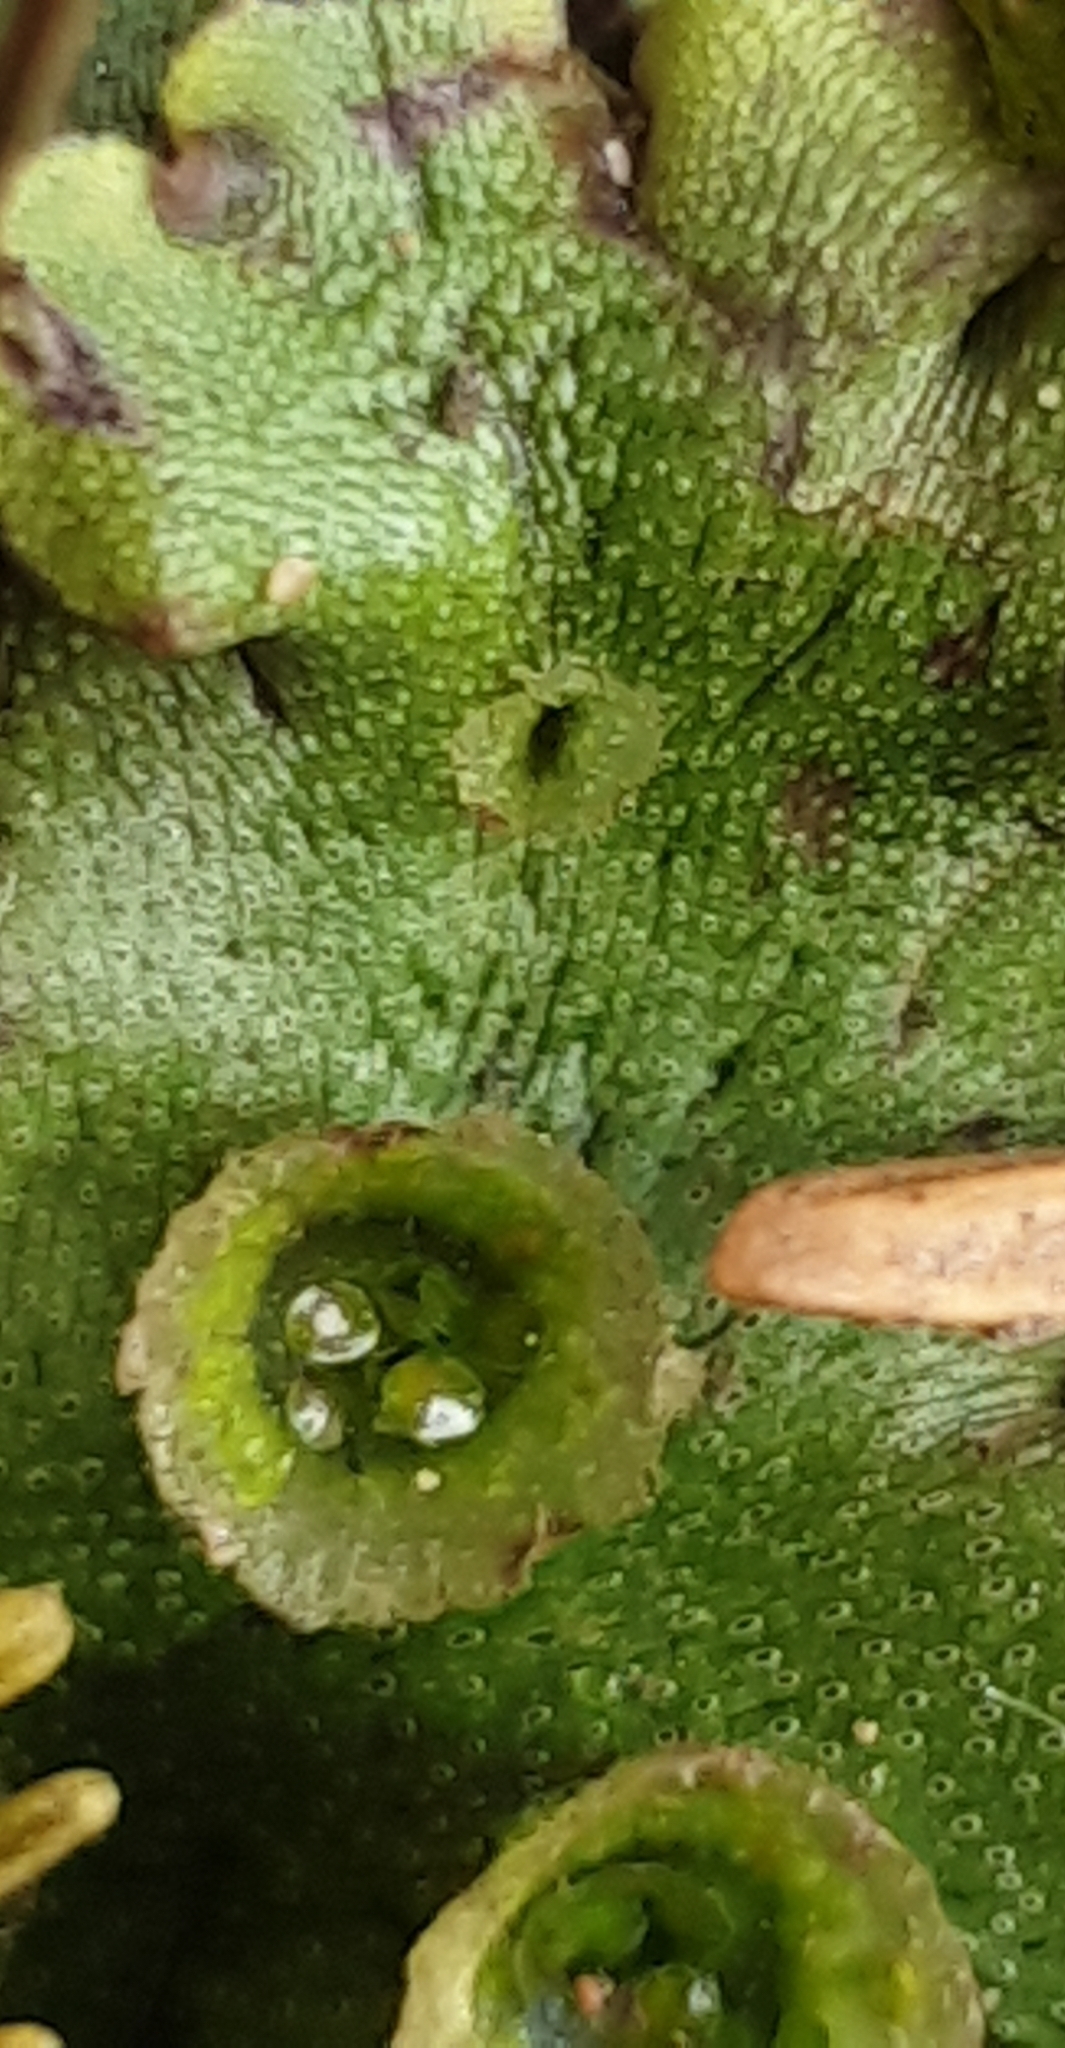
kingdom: Plantae
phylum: Marchantiophyta
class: Marchantiopsida
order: Marchantiales
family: Marchantiaceae
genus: Marchantia
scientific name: Marchantia polymorpha
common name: Common liverwort
